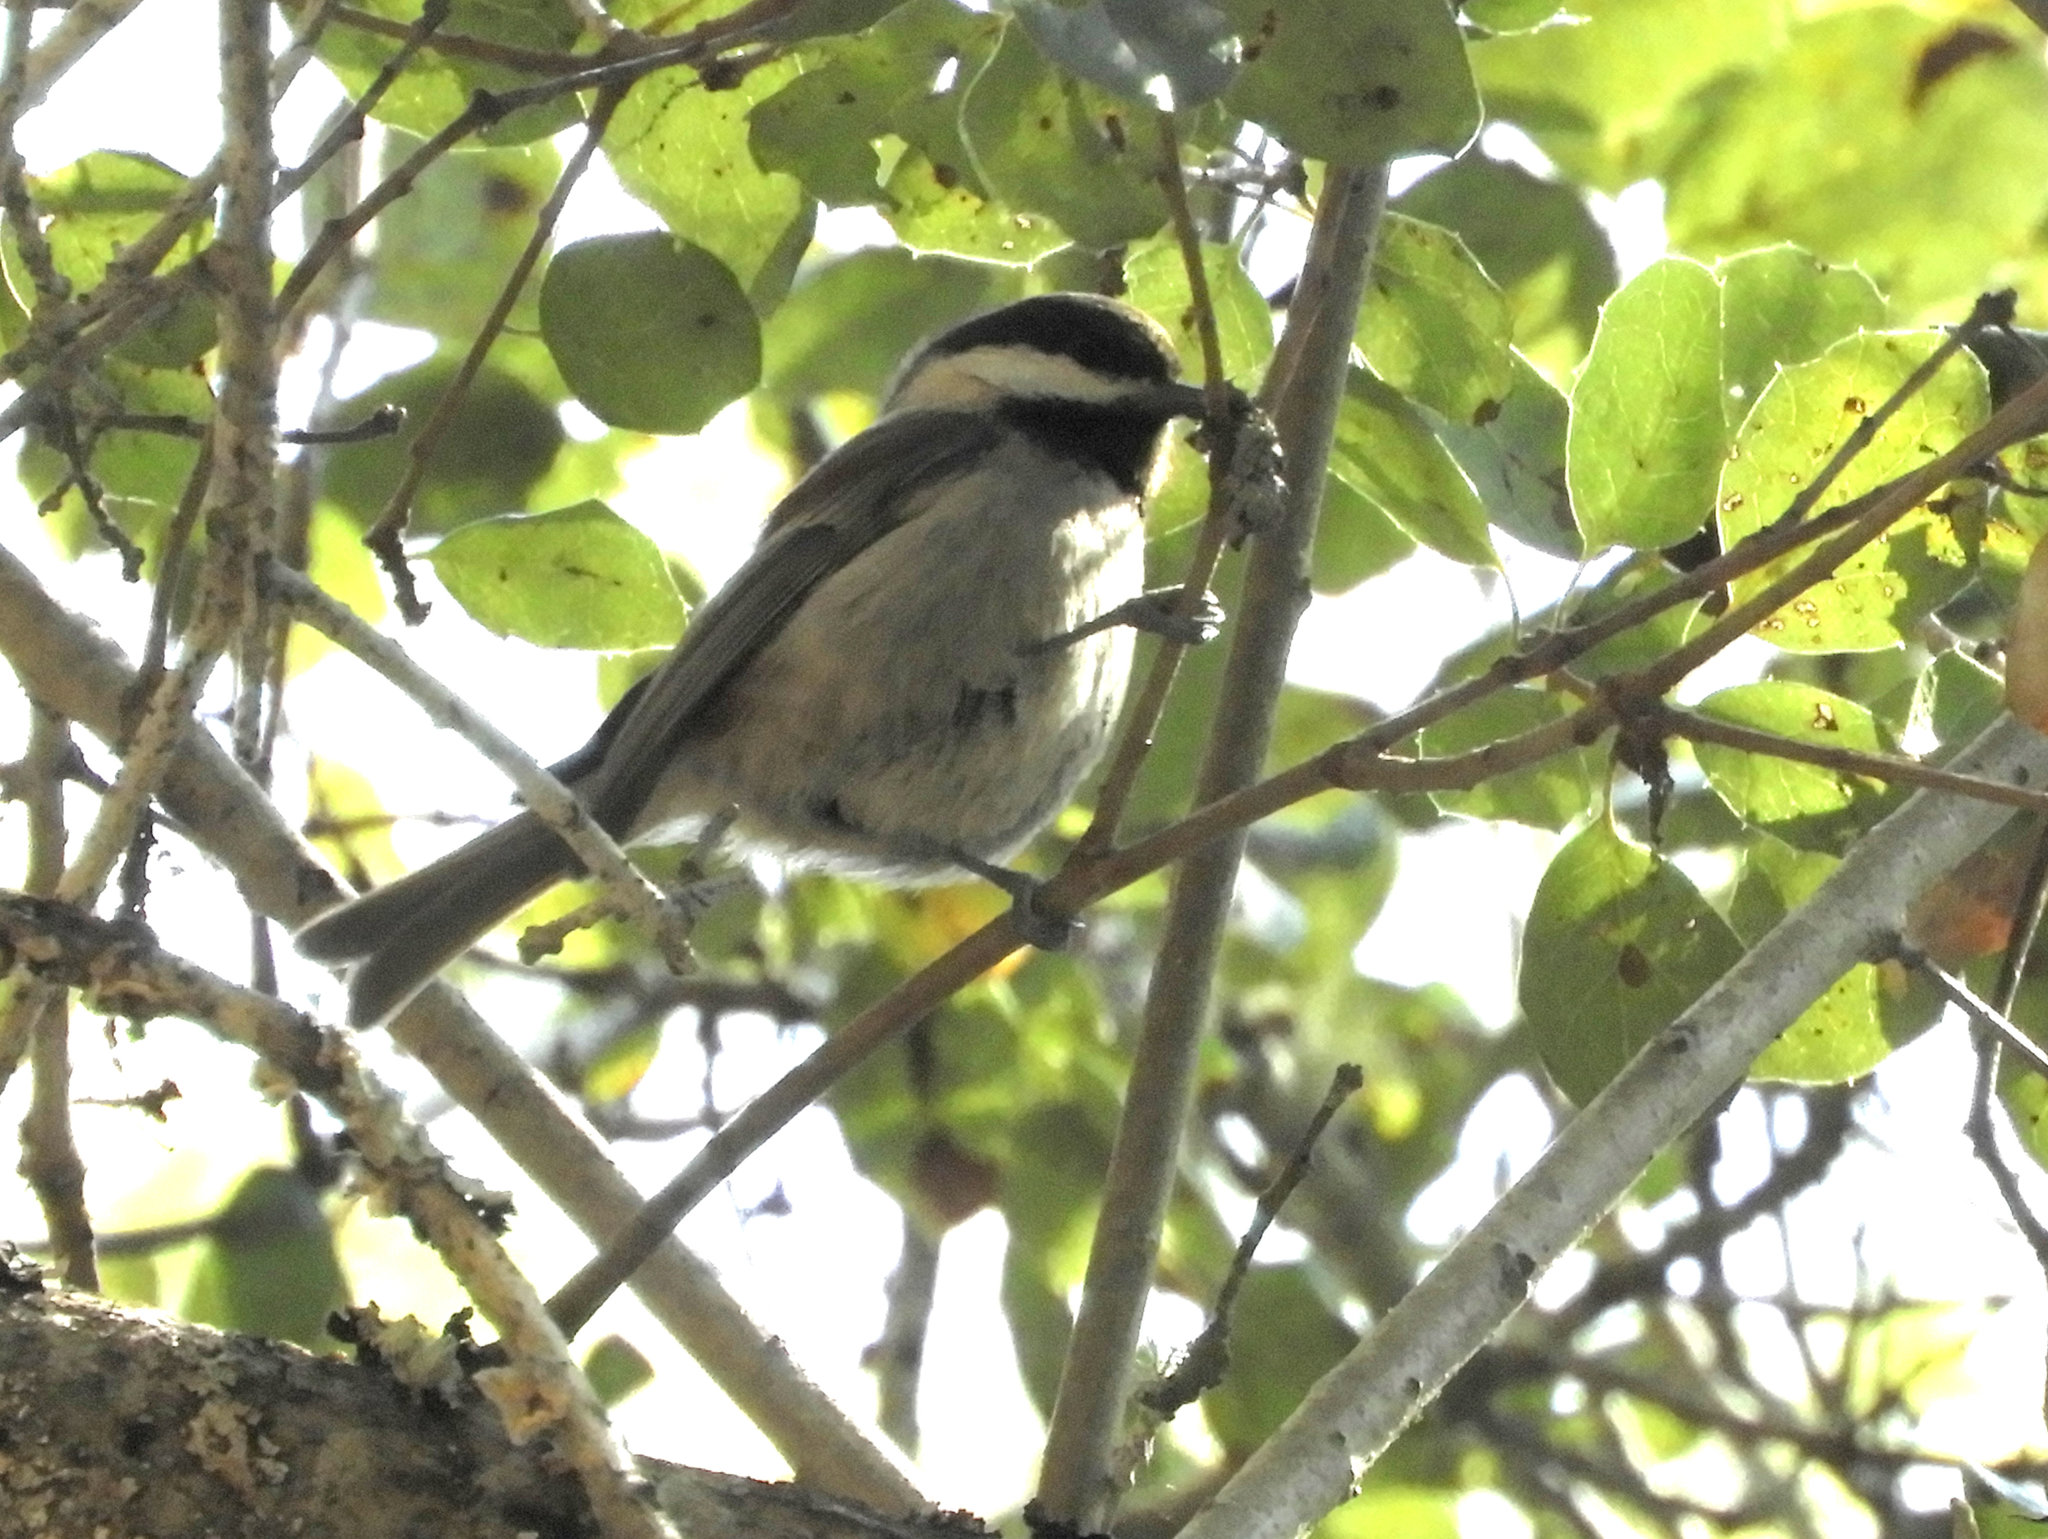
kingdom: Animalia
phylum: Chordata
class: Aves
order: Passeriformes
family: Paridae
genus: Poecile
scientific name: Poecile rufescens
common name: Chestnut-backed chickadee
